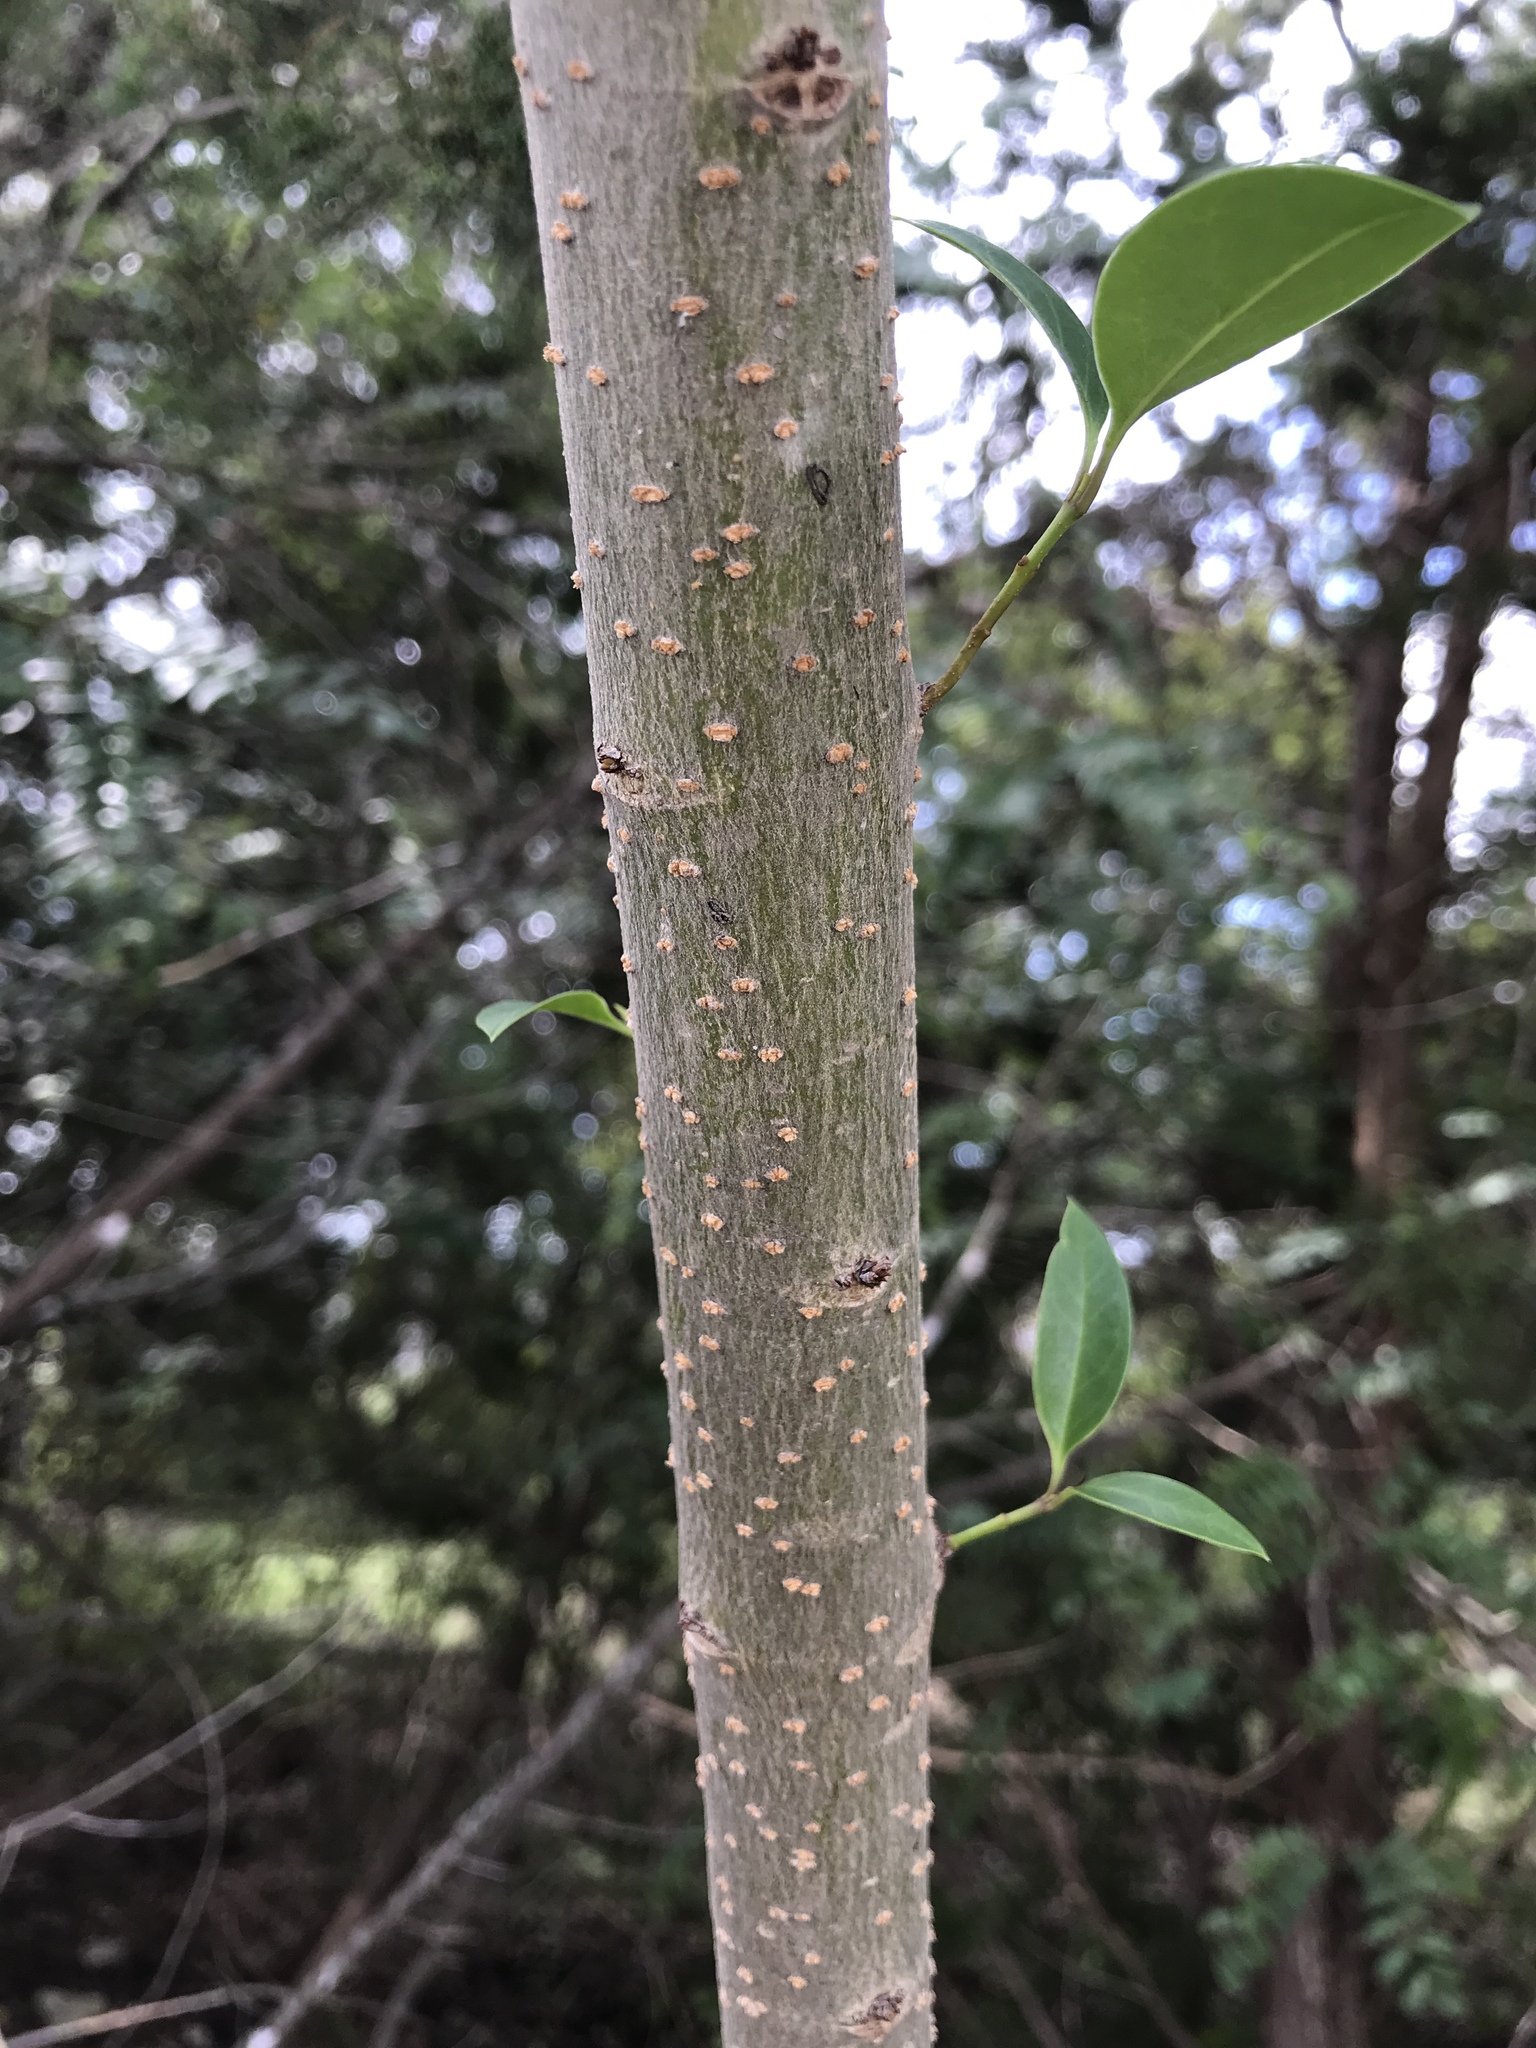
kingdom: Plantae
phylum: Tracheophyta
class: Magnoliopsida
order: Lamiales
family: Oleaceae
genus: Ligustrum
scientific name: Ligustrum lucidum
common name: Glossy privet
